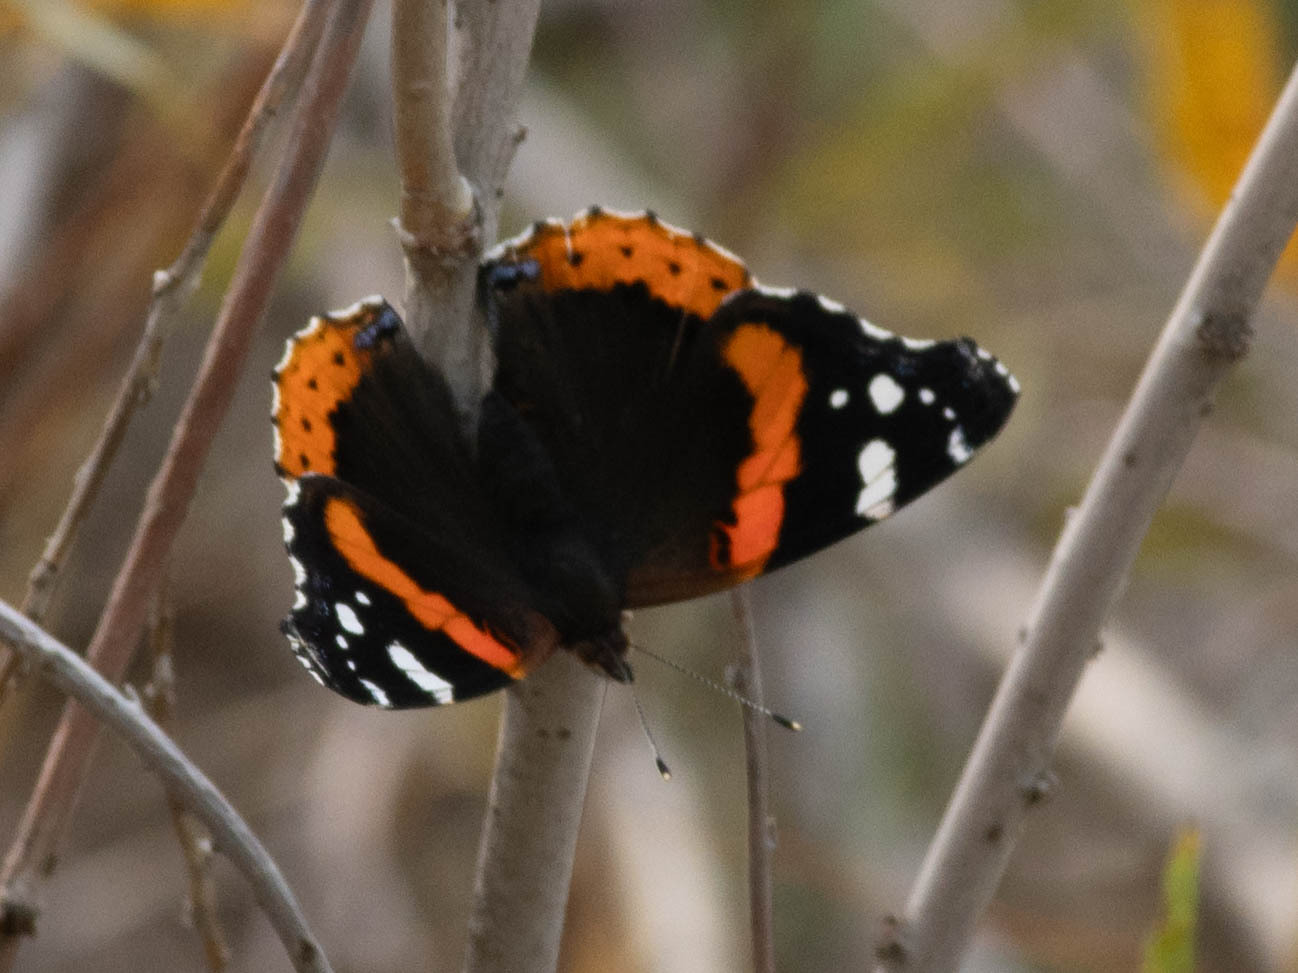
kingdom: Animalia
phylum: Arthropoda
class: Insecta
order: Lepidoptera
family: Nymphalidae
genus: Vanessa
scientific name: Vanessa atalanta
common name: Red admiral
